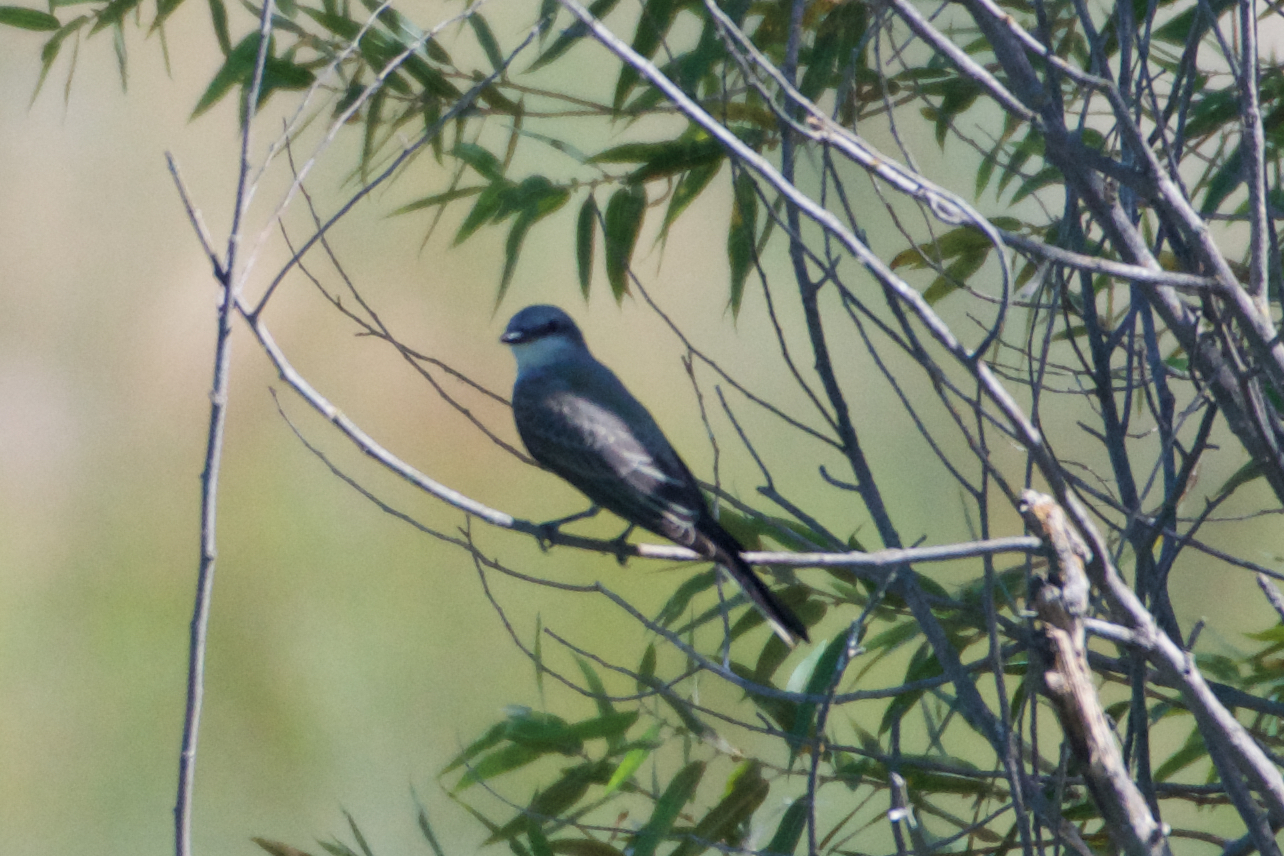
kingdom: Animalia
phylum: Chordata
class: Aves
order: Passeriformes
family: Tyrannidae
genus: Tyrannus
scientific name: Tyrannus verticalis
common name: Western kingbird
